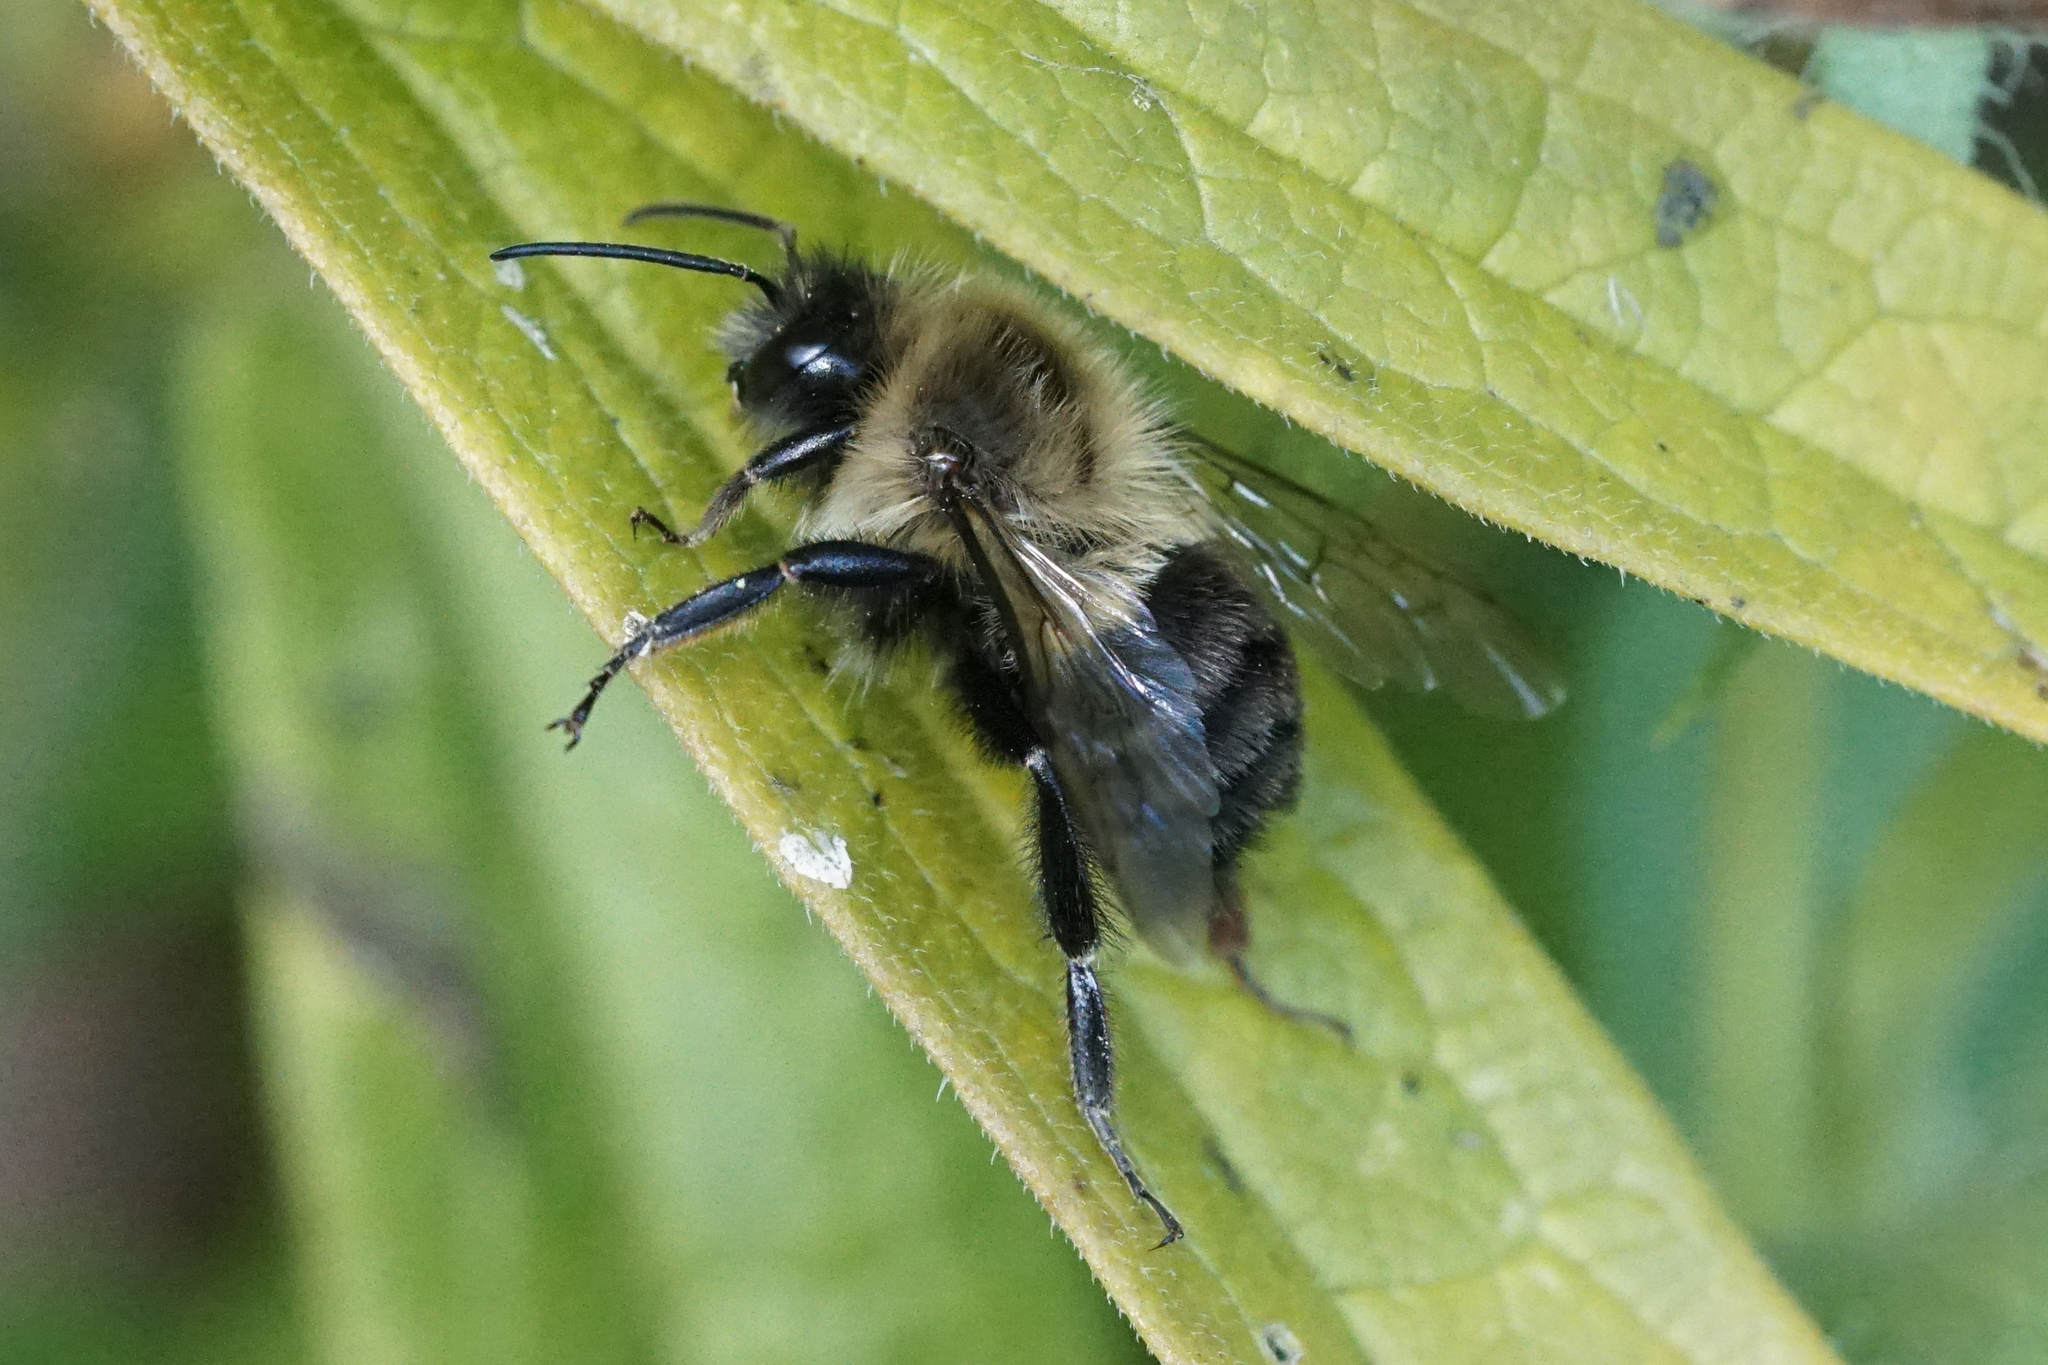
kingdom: Animalia
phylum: Arthropoda
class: Insecta
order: Hymenoptera
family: Apidae
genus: Bombus
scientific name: Bombus impatiens
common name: Common eastern bumble bee
